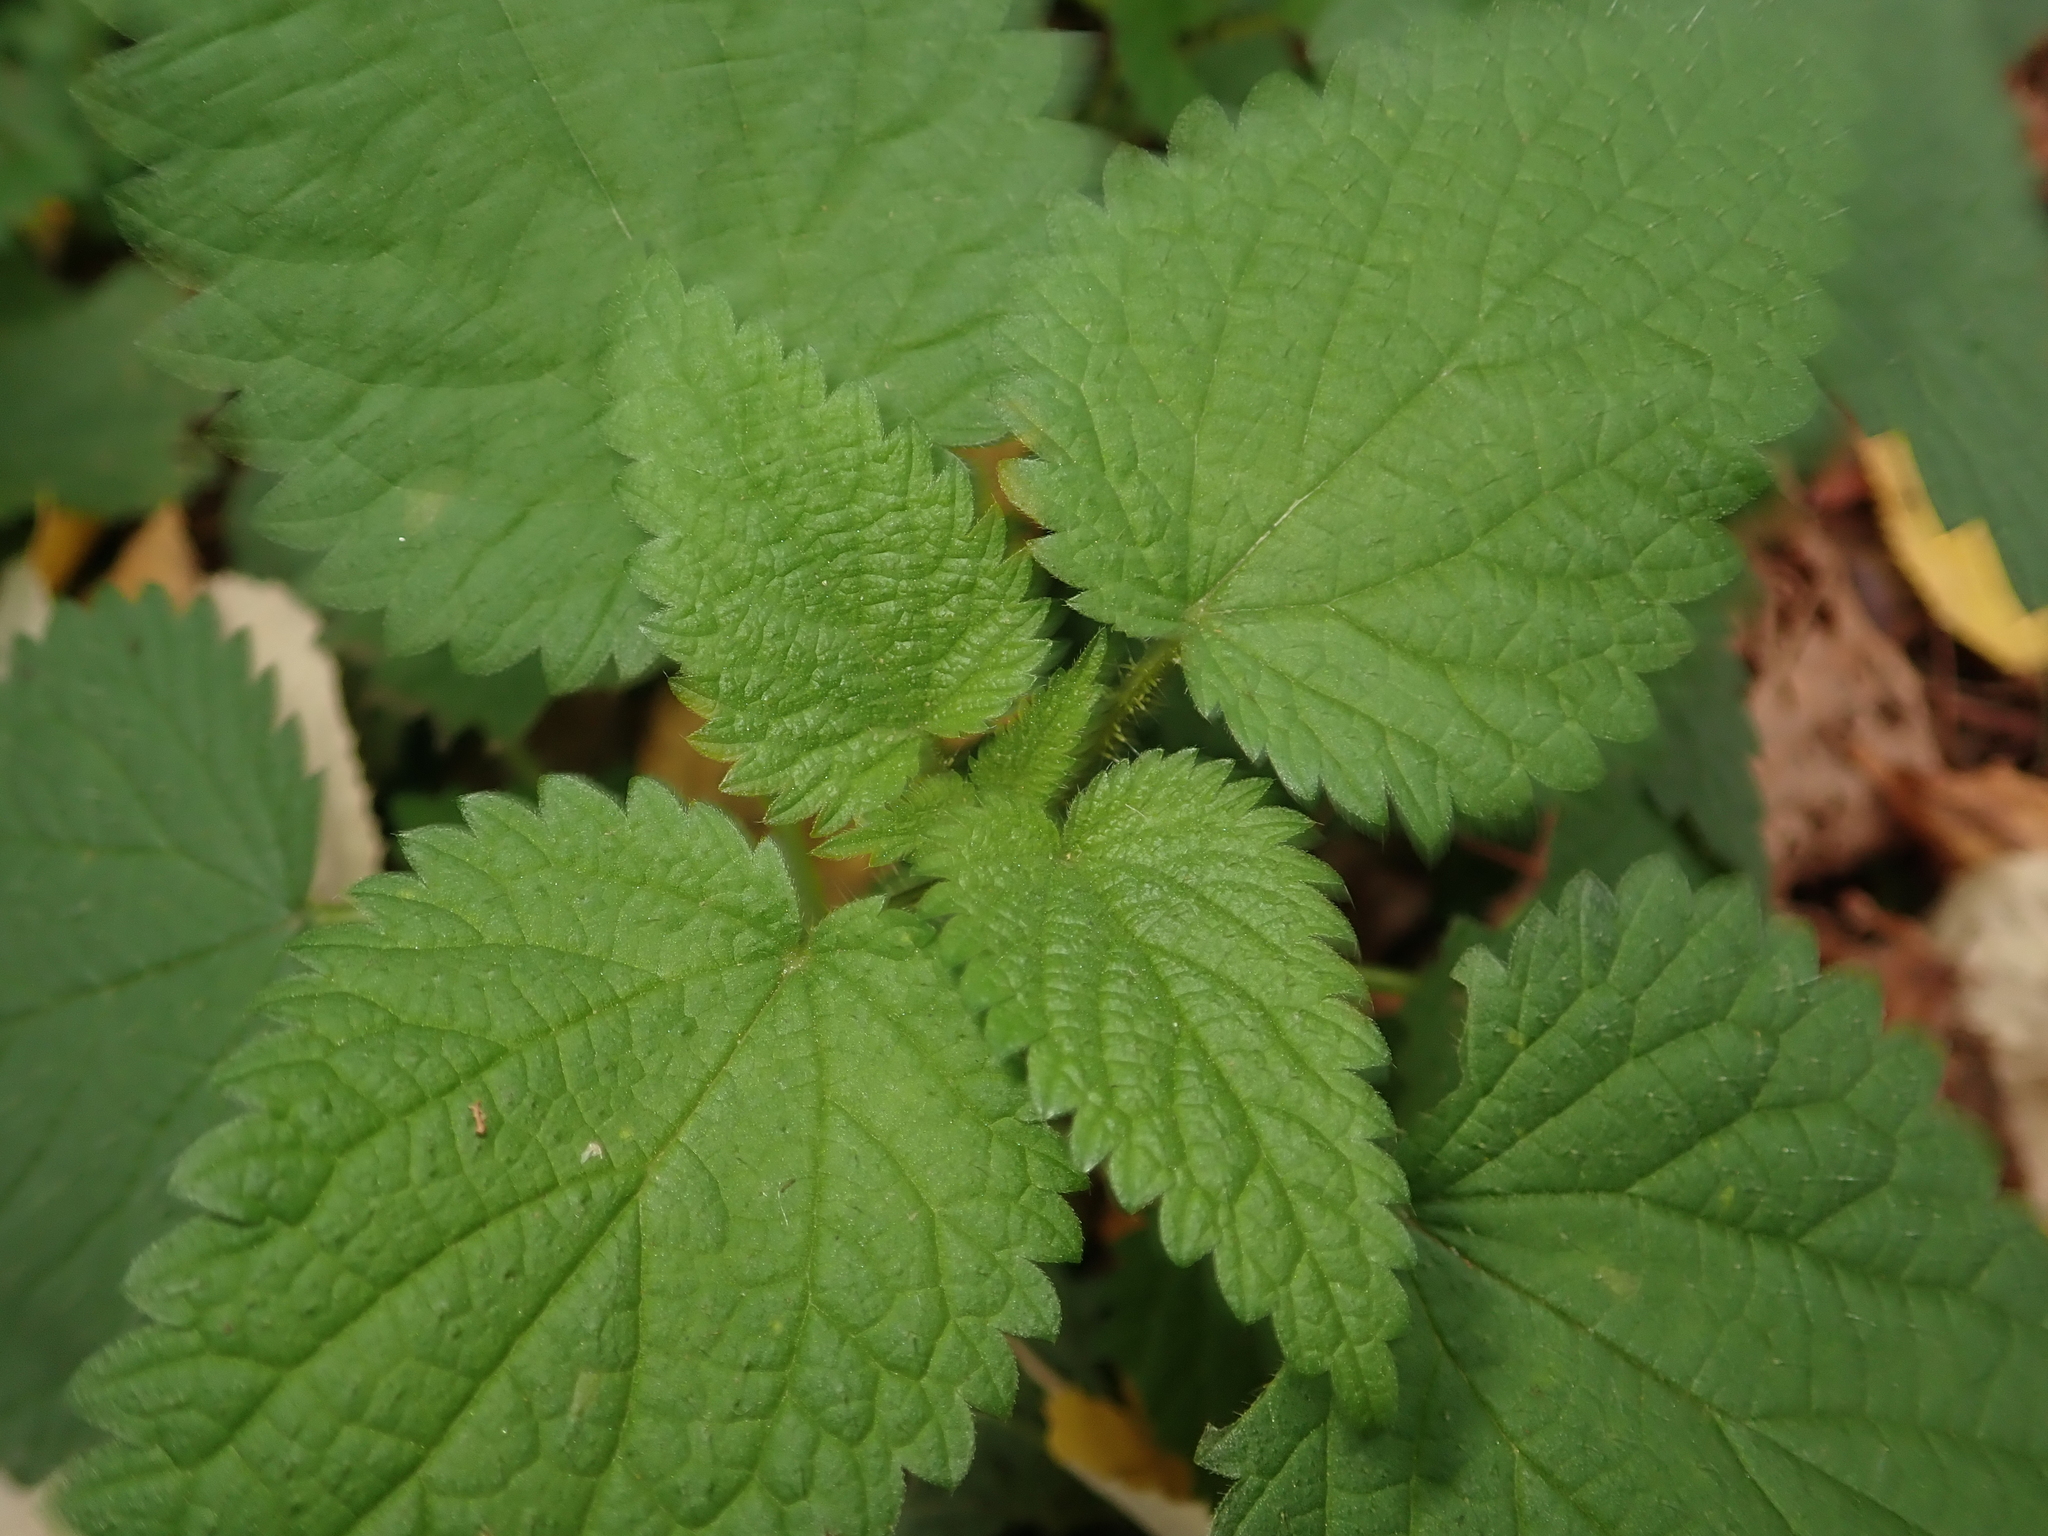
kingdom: Plantae
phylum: Tracheophyta
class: Magnoliopsida
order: Rosales
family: Urticaceae
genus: Urtica
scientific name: Urtica dioica
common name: Common nettle
